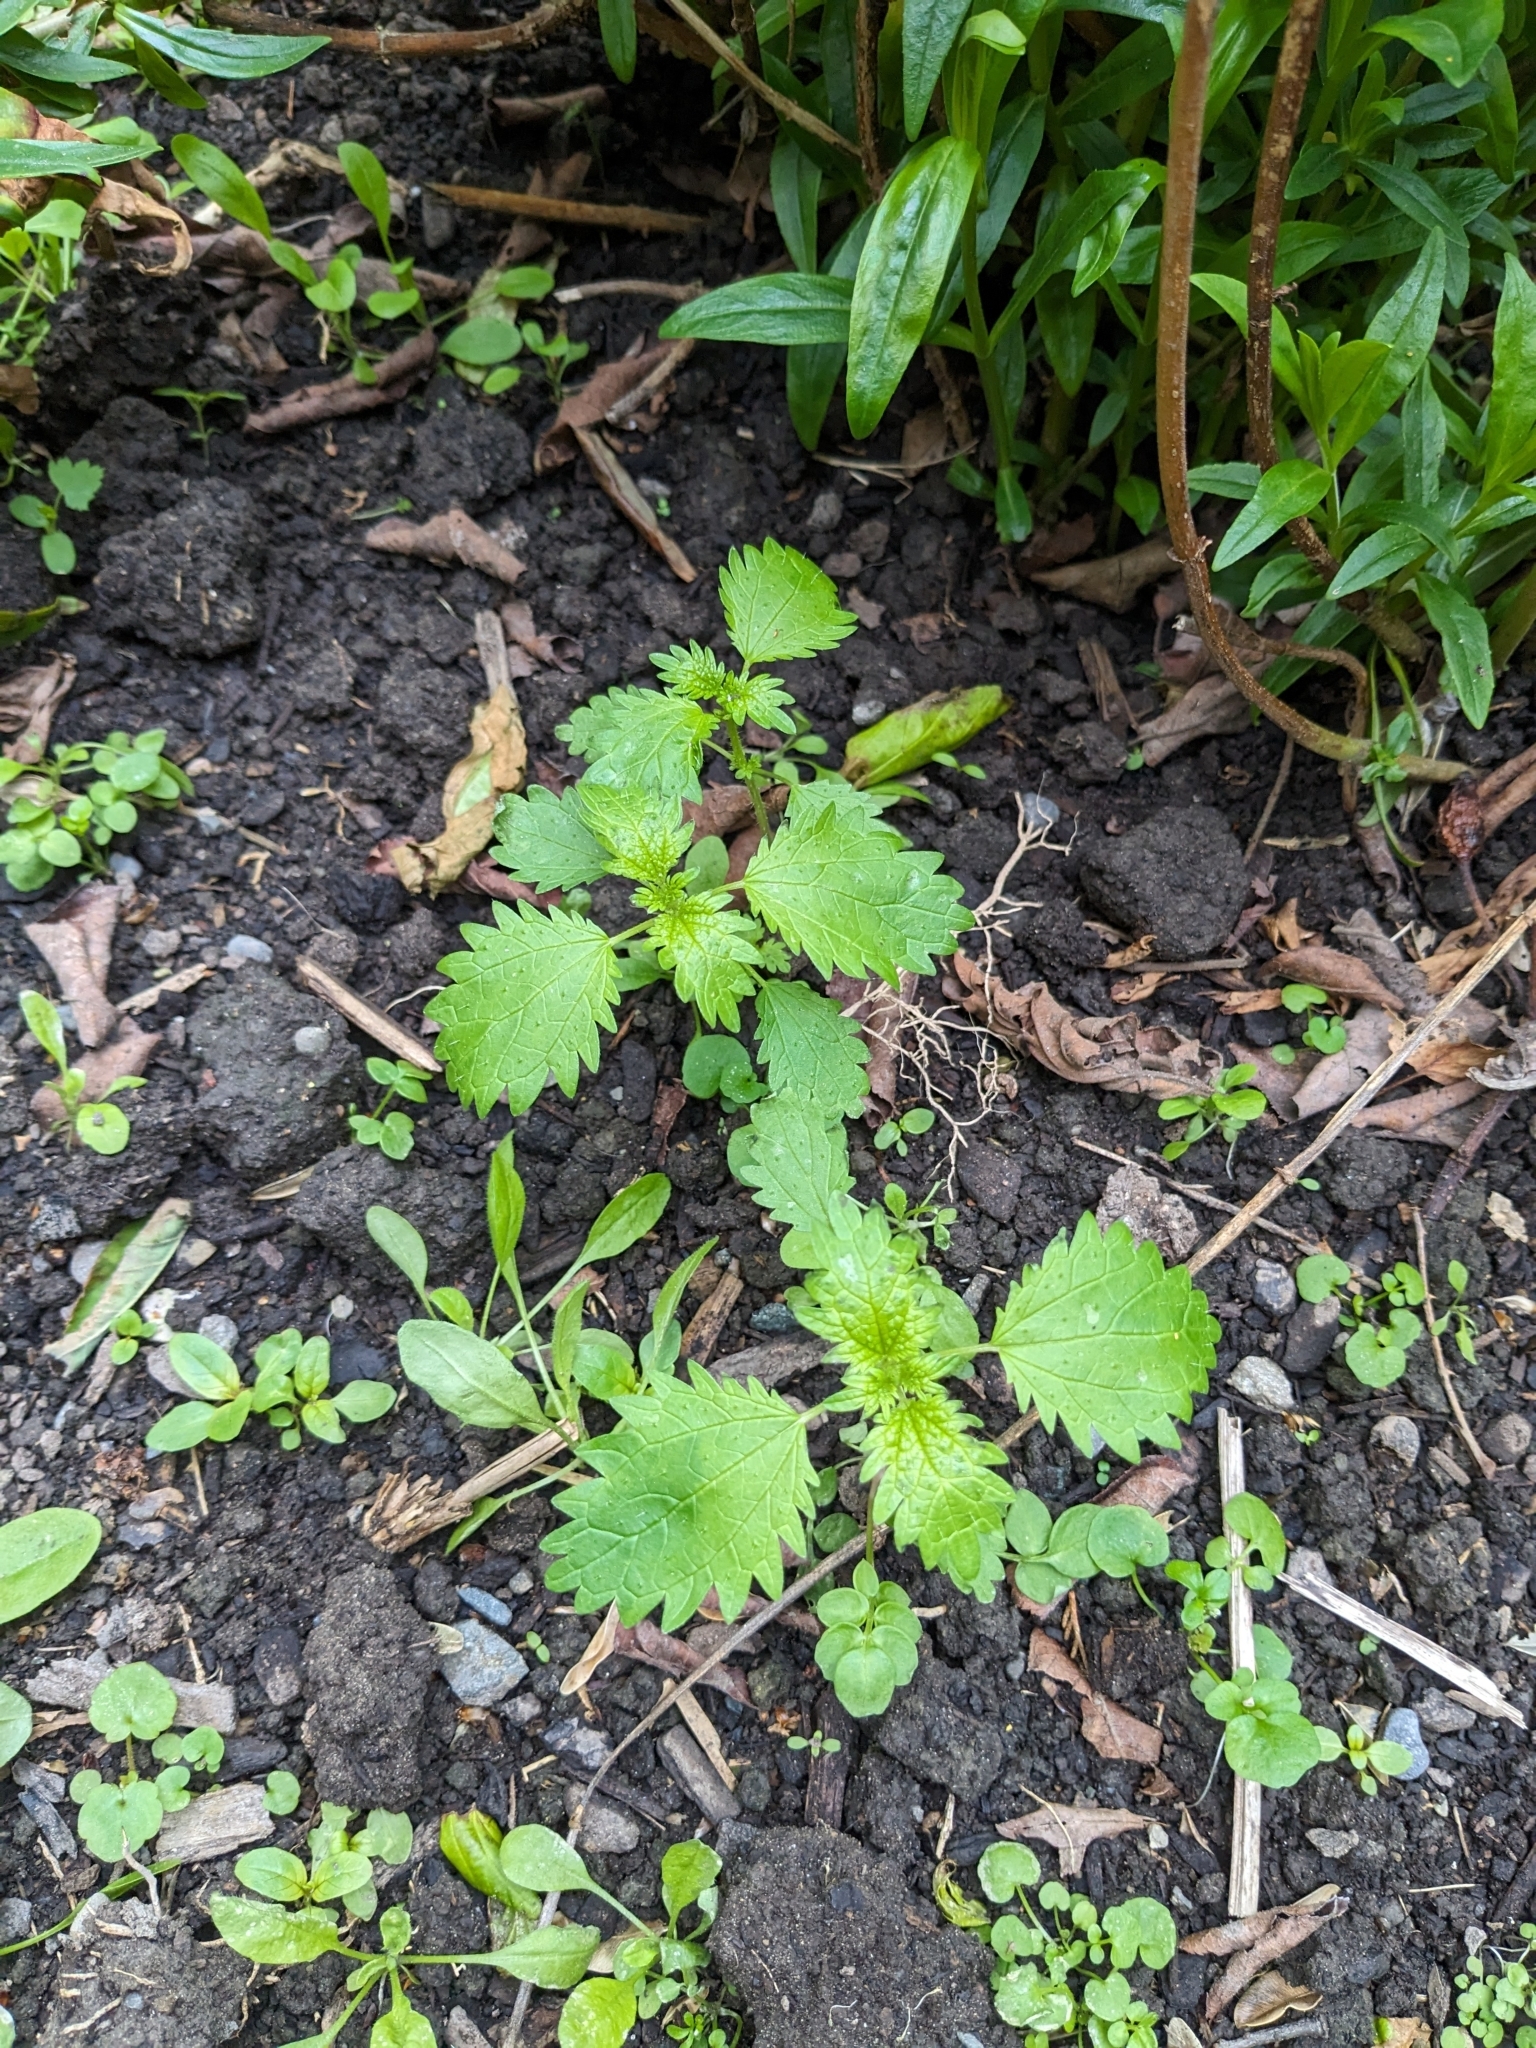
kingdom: Plantae
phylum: Tracheophyta
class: Magnoliopsida
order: Rosales
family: Urticaceae
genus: Urtica
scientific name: Urtica urens
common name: Dwarf nettle
